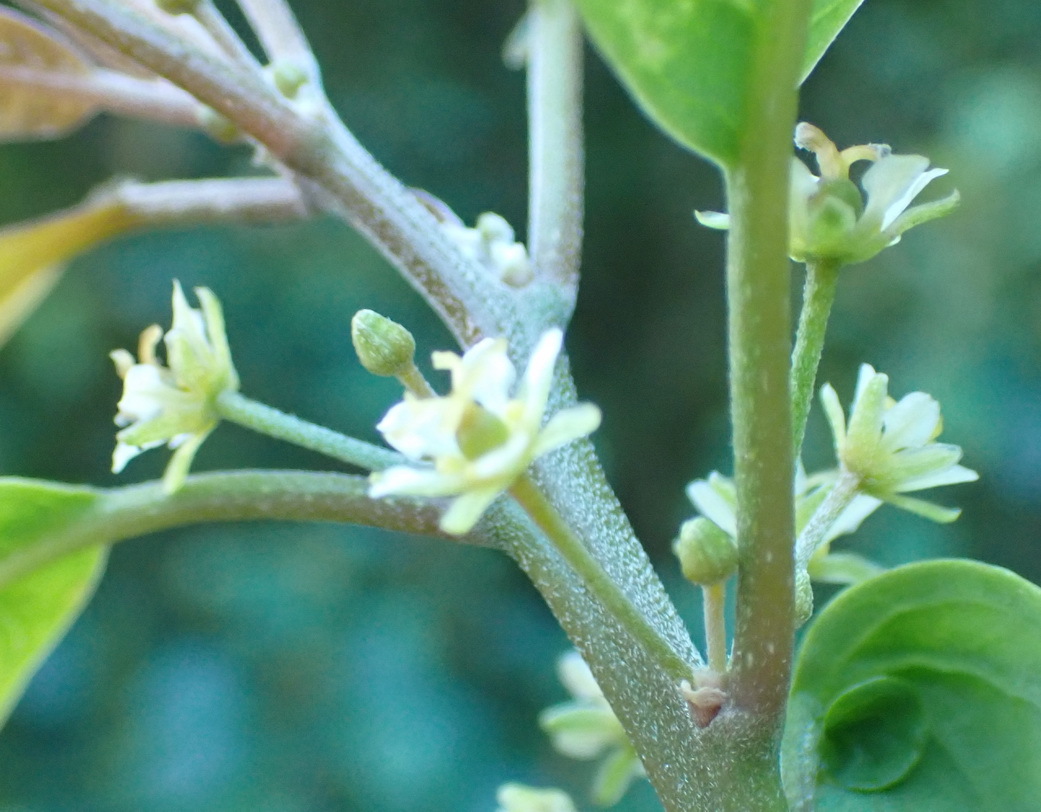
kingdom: Plantae
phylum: Tracheophyta
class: Magnoliopsida
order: Malpighiales
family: Peraceae
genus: Clutia
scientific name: Clutia pulchella
